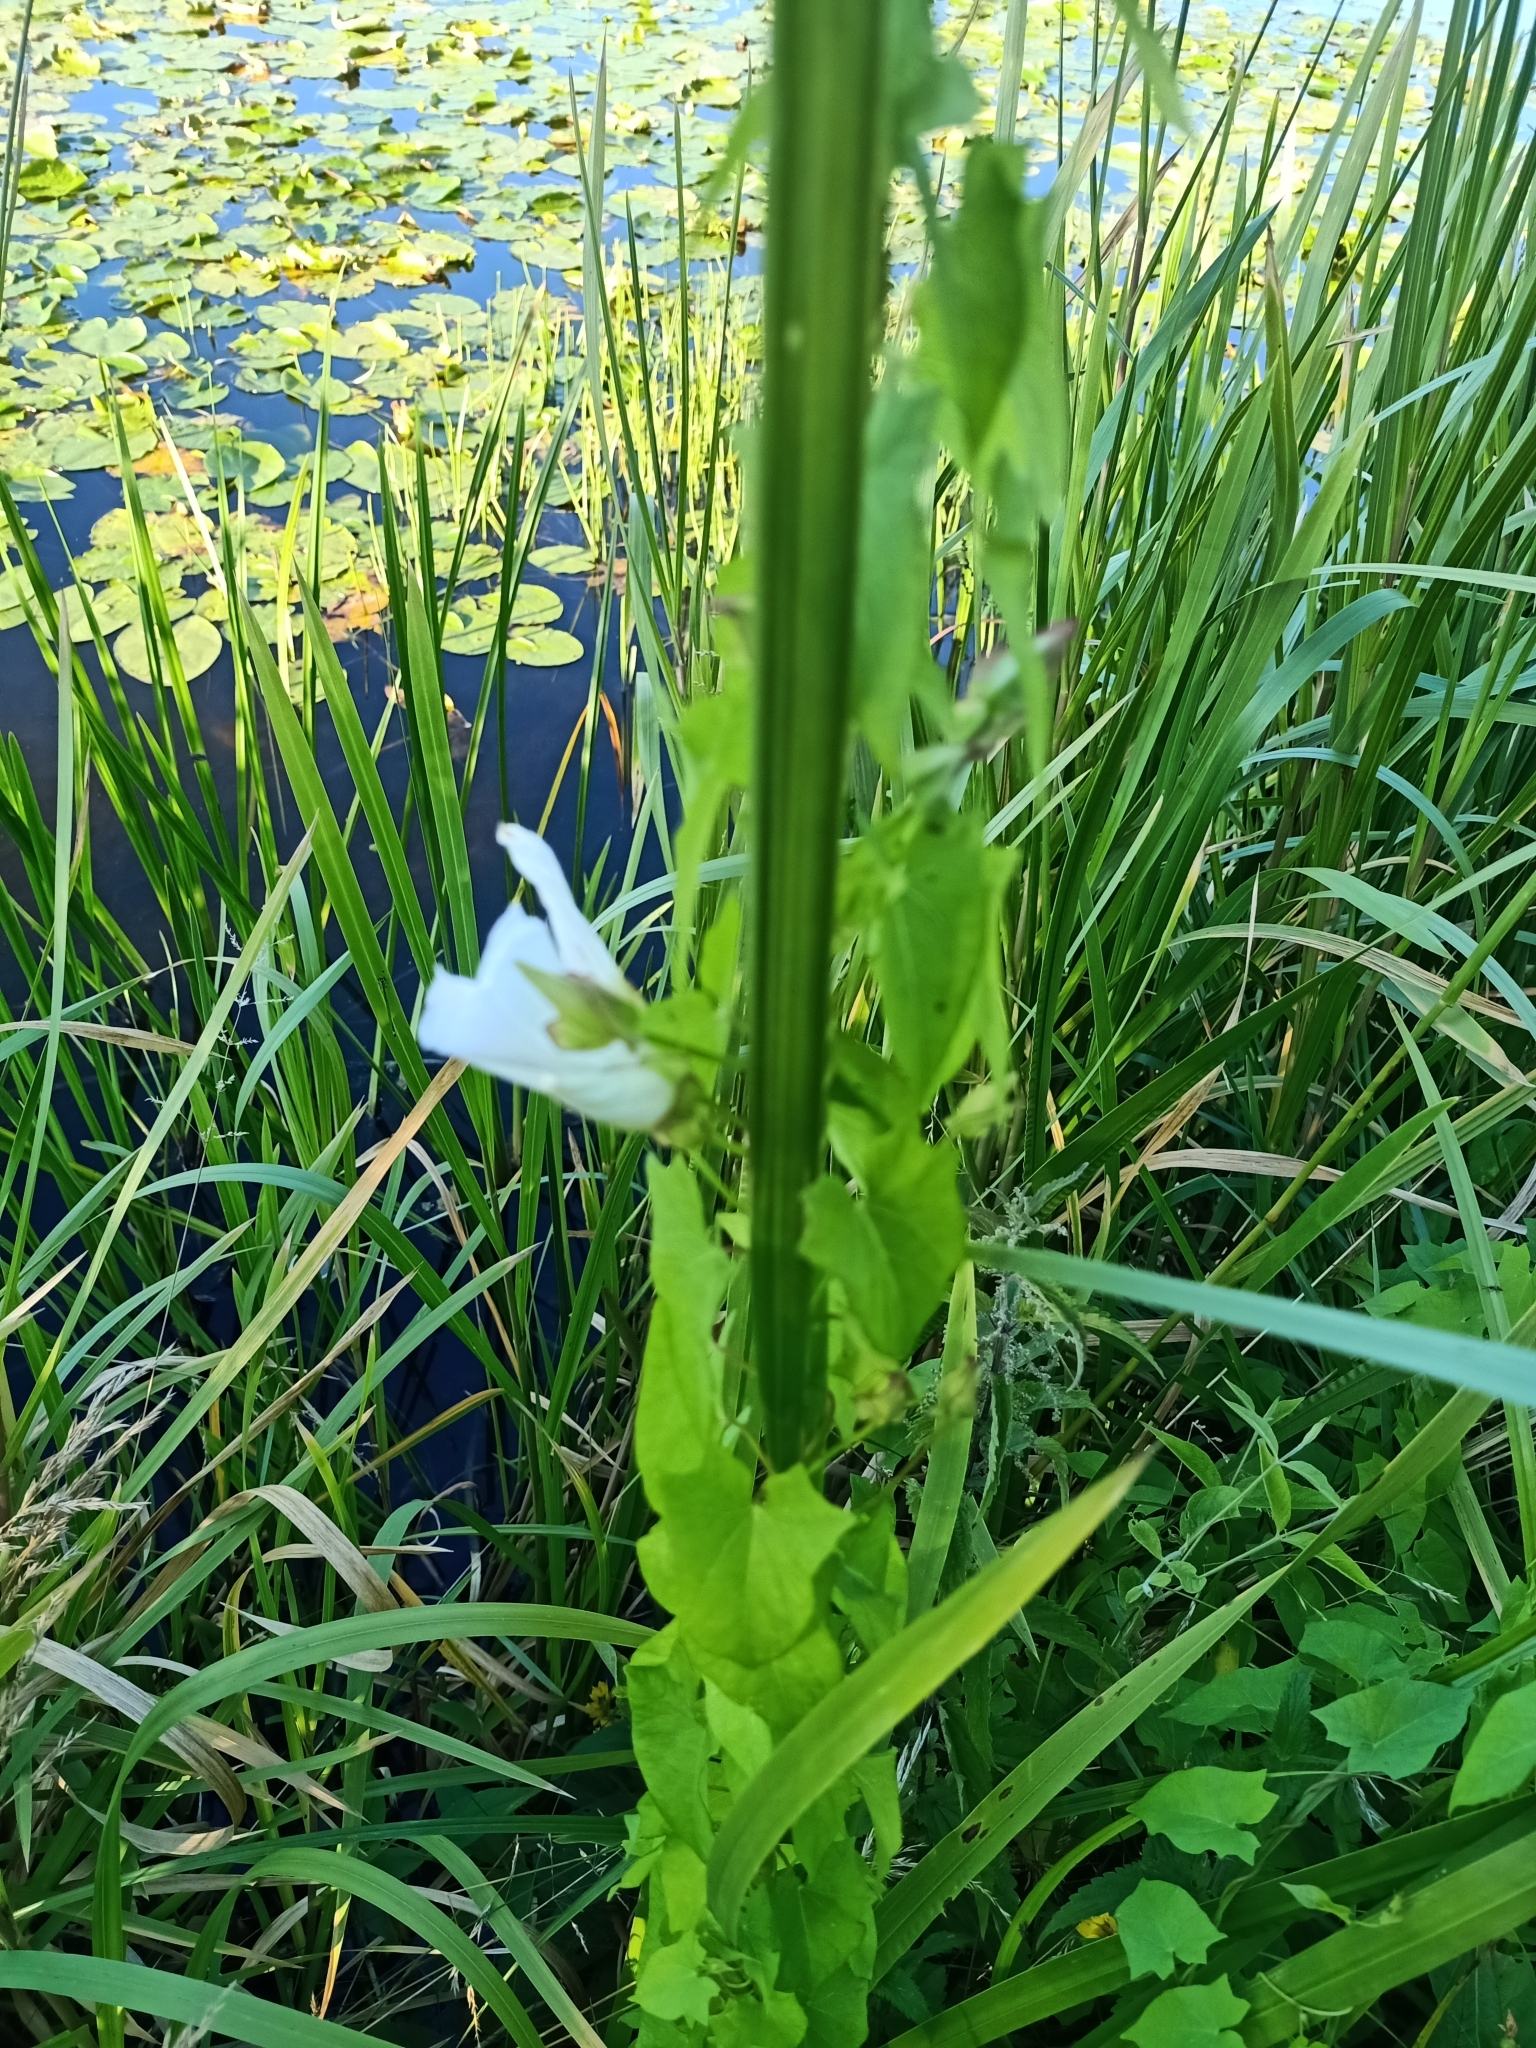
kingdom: Plantae
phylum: Tracheophyta
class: Magnoliopsida
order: Solanales
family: Convolvulaceae
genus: Calystegia
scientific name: Calystegia sepium
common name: Hedge bindweed
